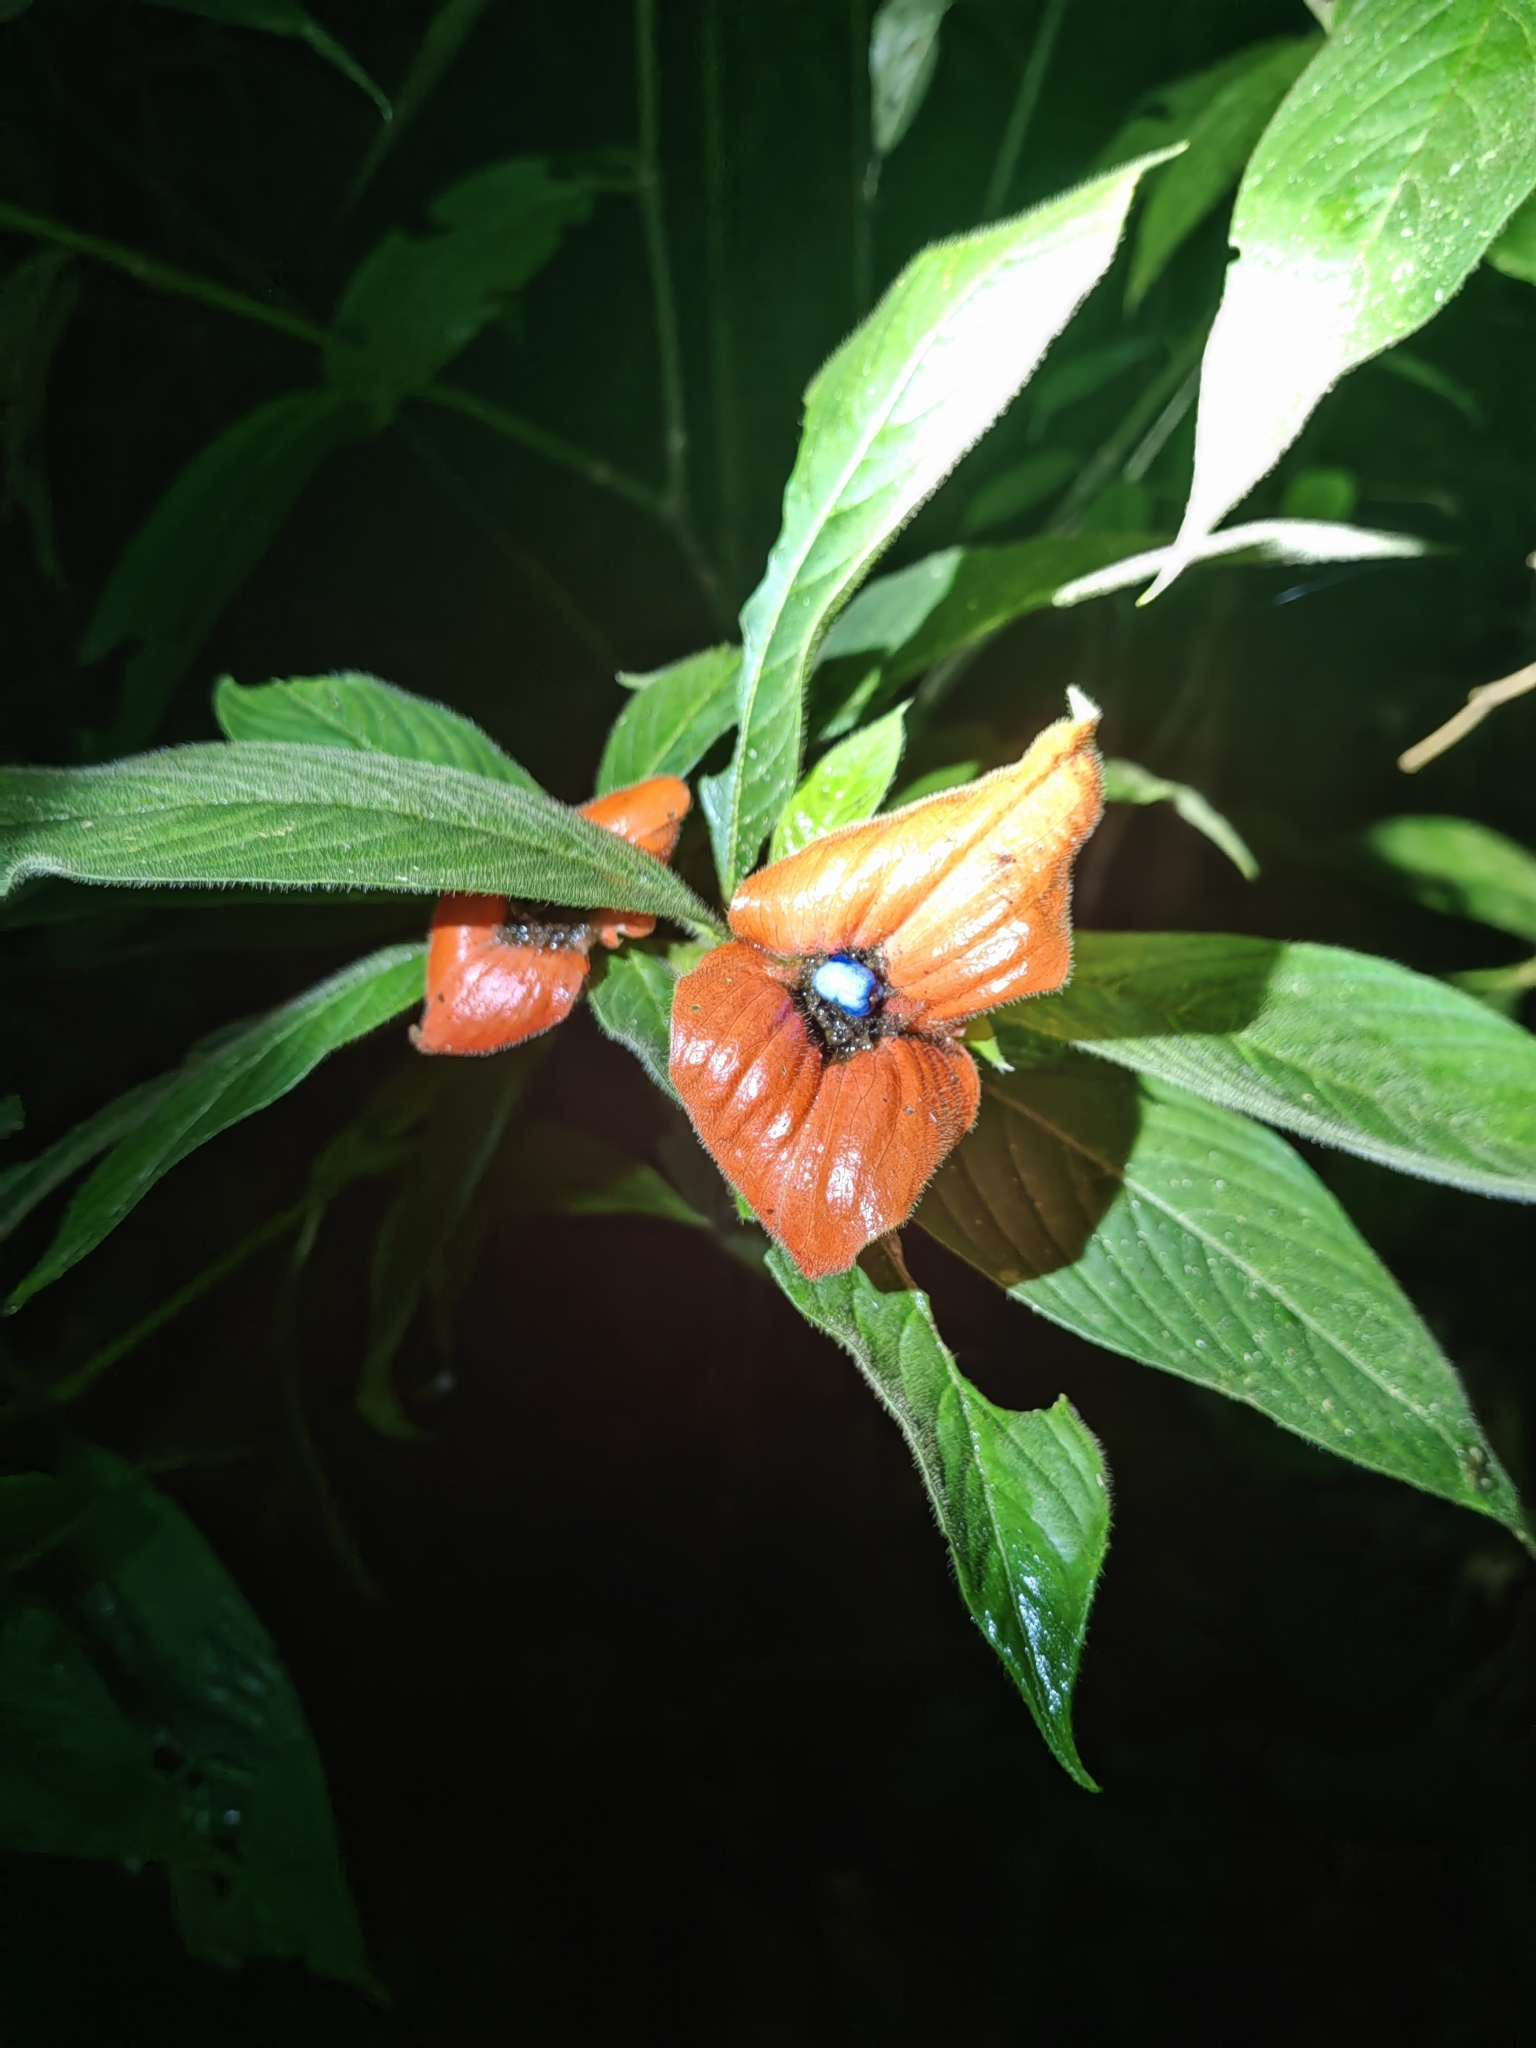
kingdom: Plantae
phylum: Tracheophyta
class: Magnoliopsida
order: Gentianales
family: Rubiaceae
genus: Palicourea
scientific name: Palicourea tomentosa
